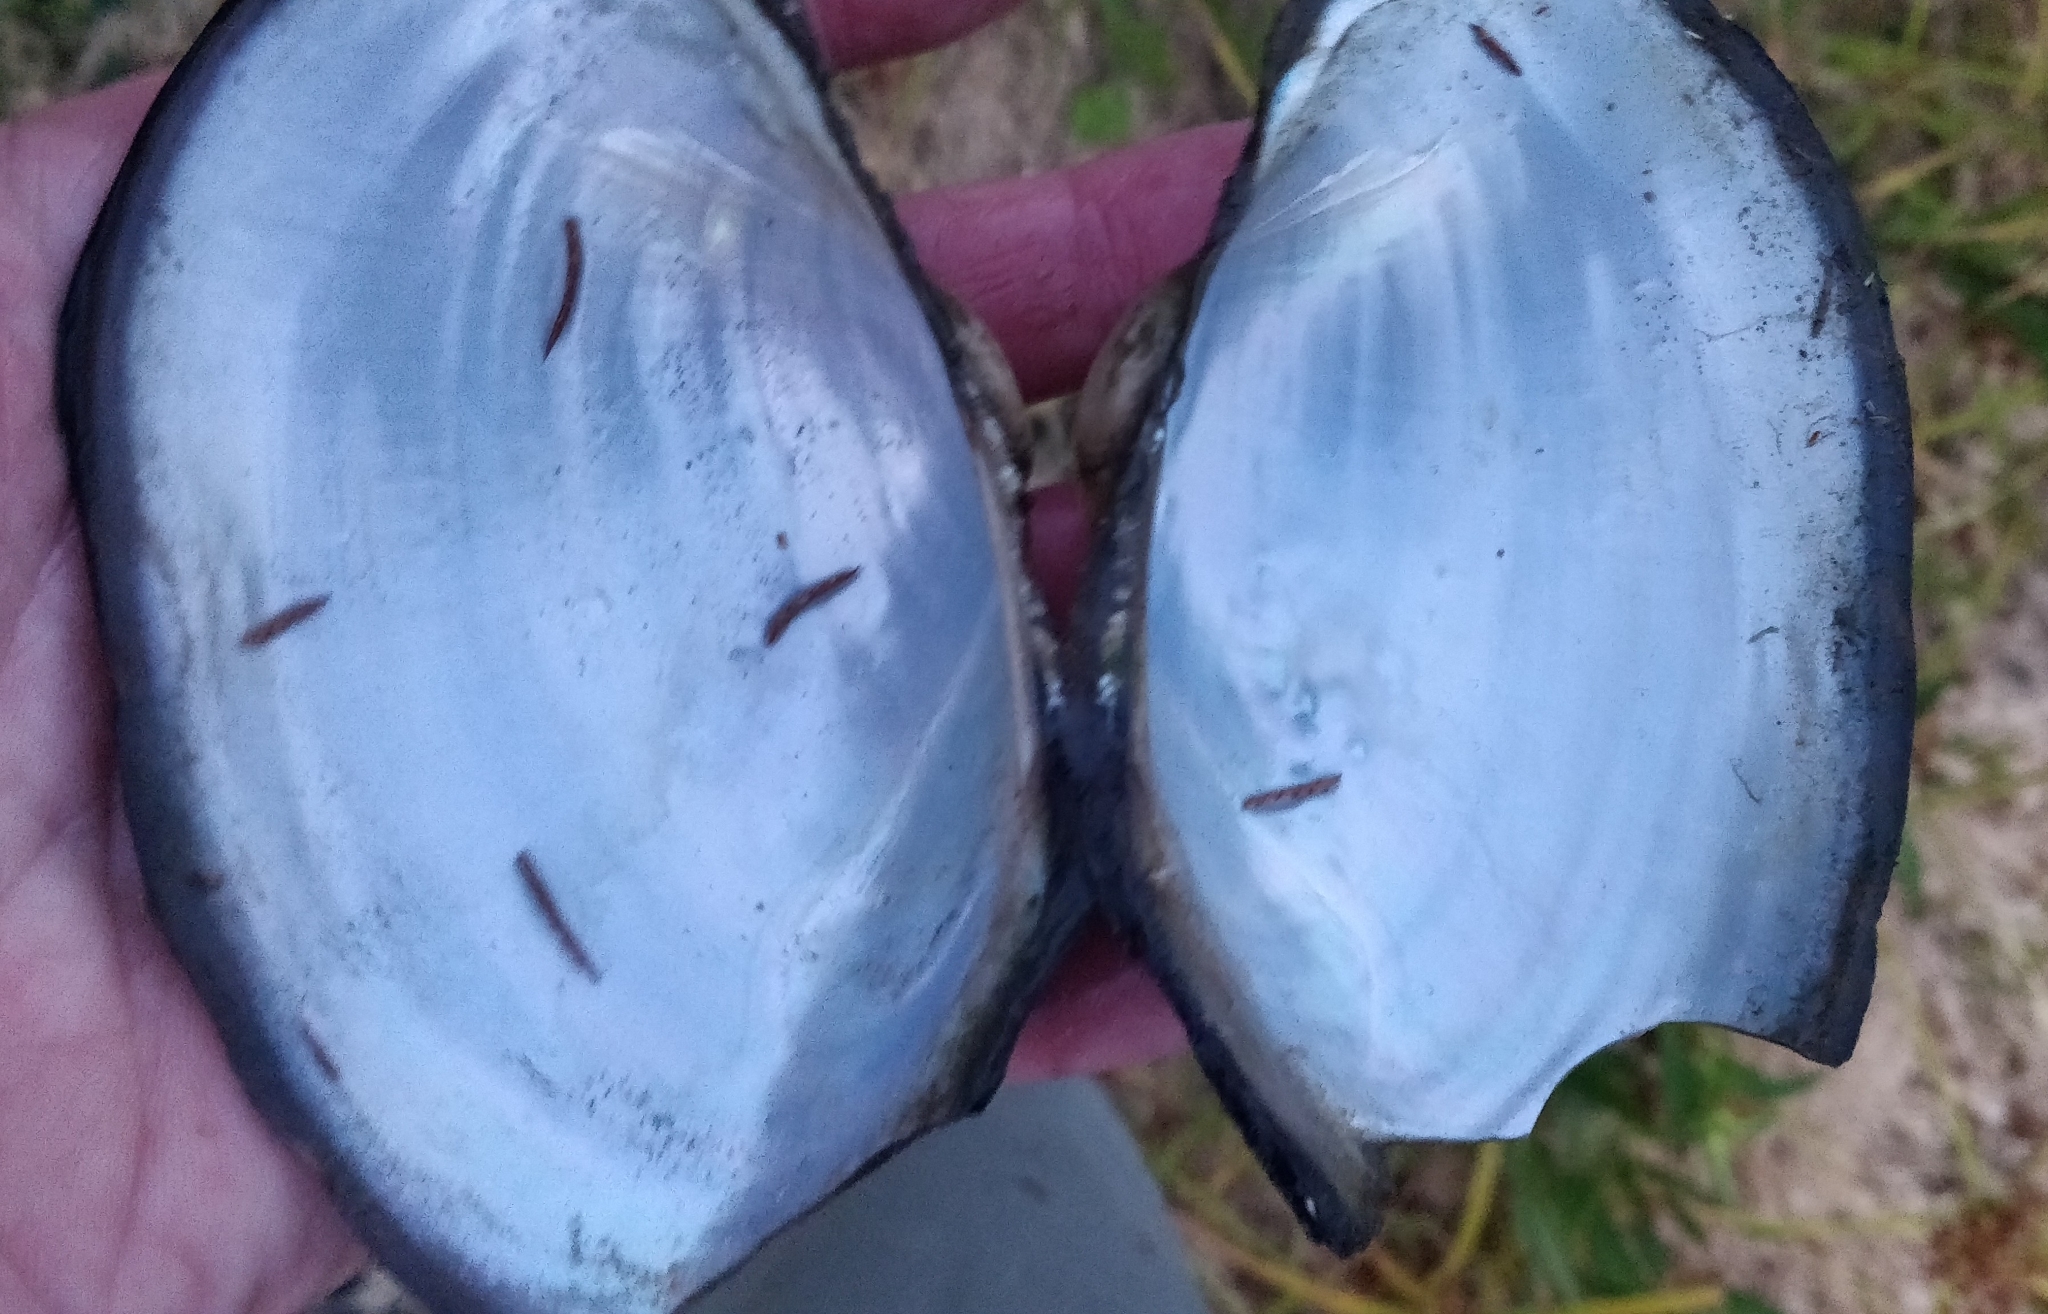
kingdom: Animalia
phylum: Mollusca
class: Bivalvia
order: Unionida
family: Unionidae
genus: Pyganodon
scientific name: Pyganodon grandis
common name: Giant floater
